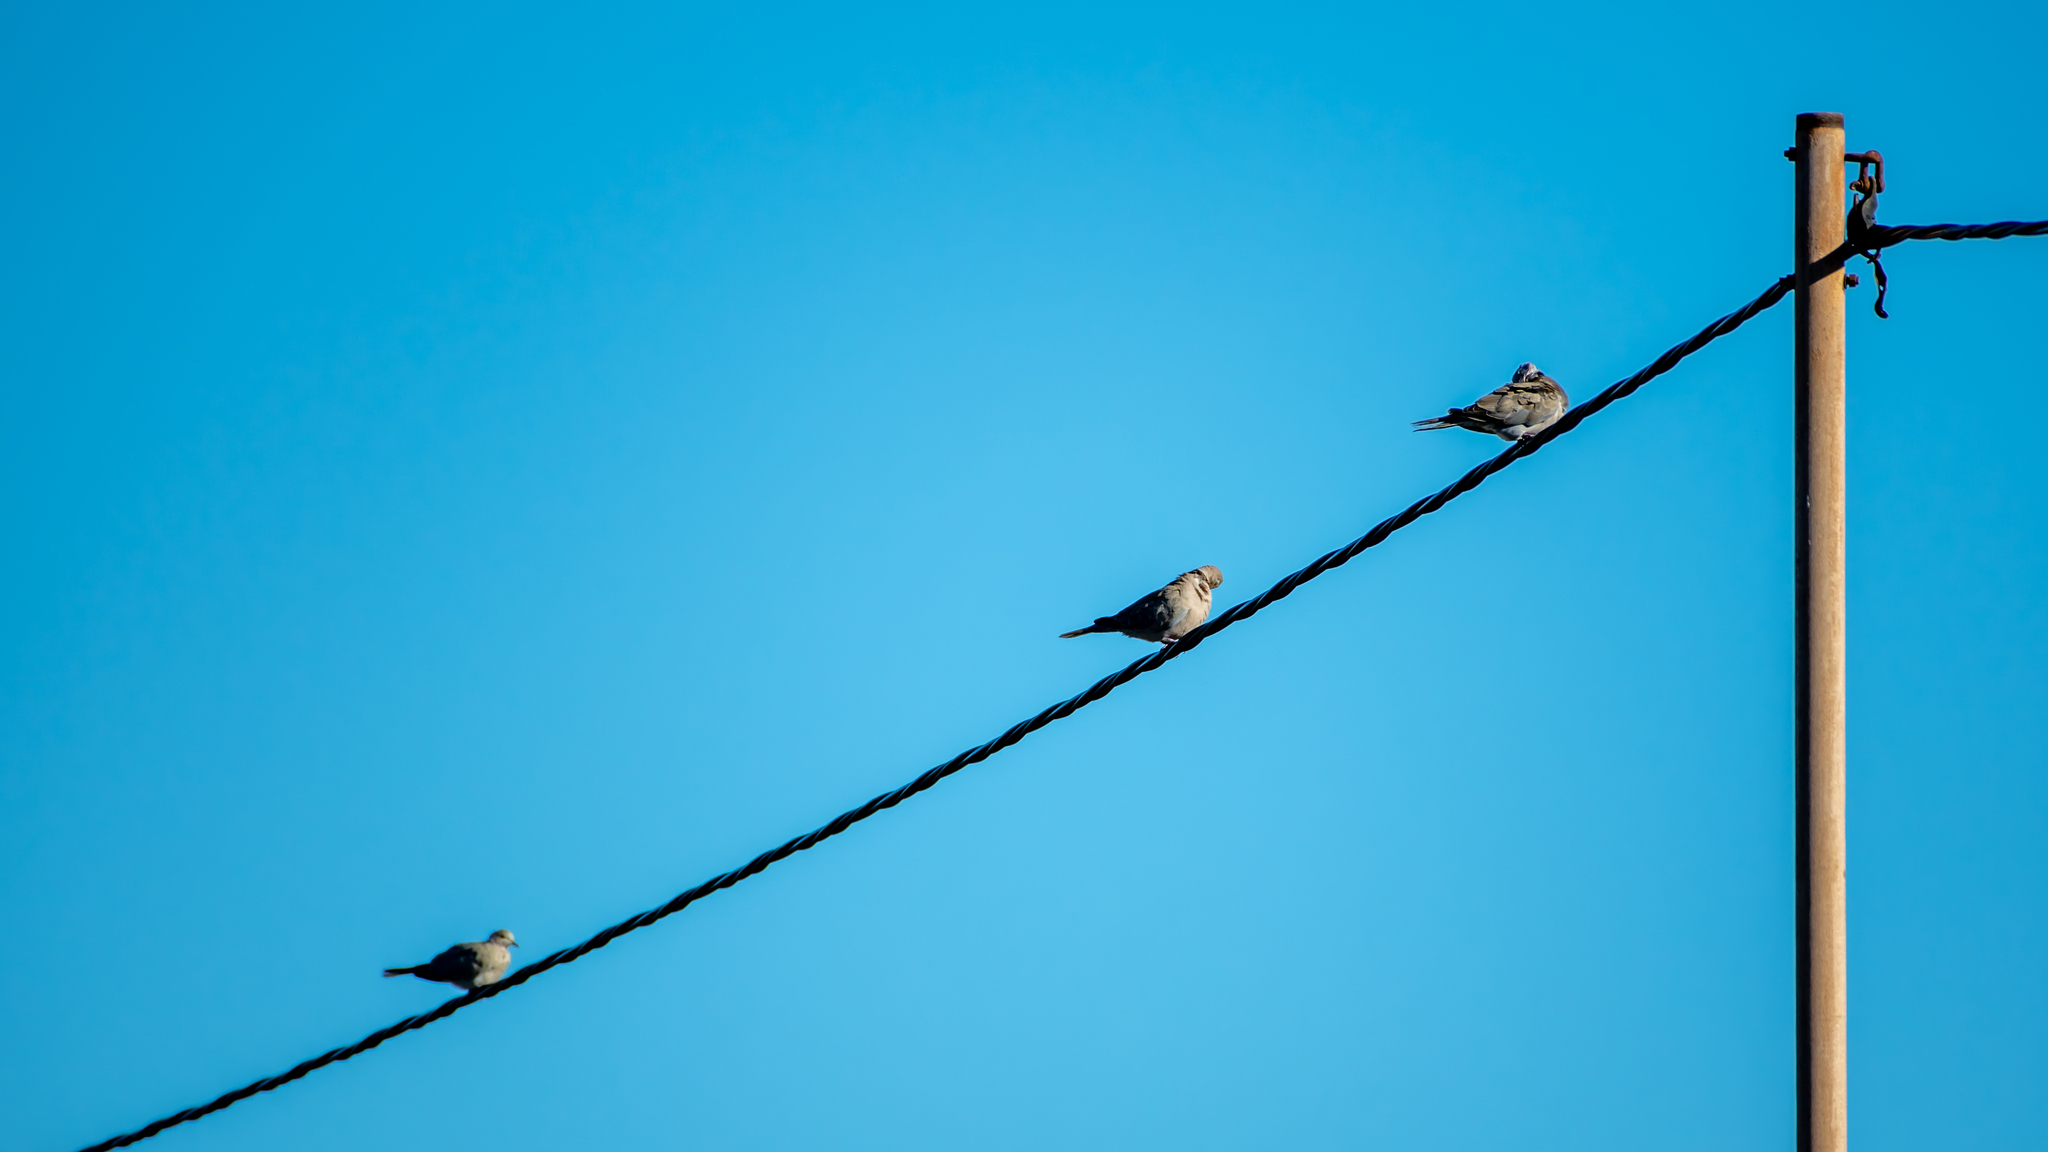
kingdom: Animalia
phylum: Chordata
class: Aves
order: Columbiformes
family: Columbidae
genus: Streptopelia
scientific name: Streptopelia decaocto
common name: Eurasian collared dove
